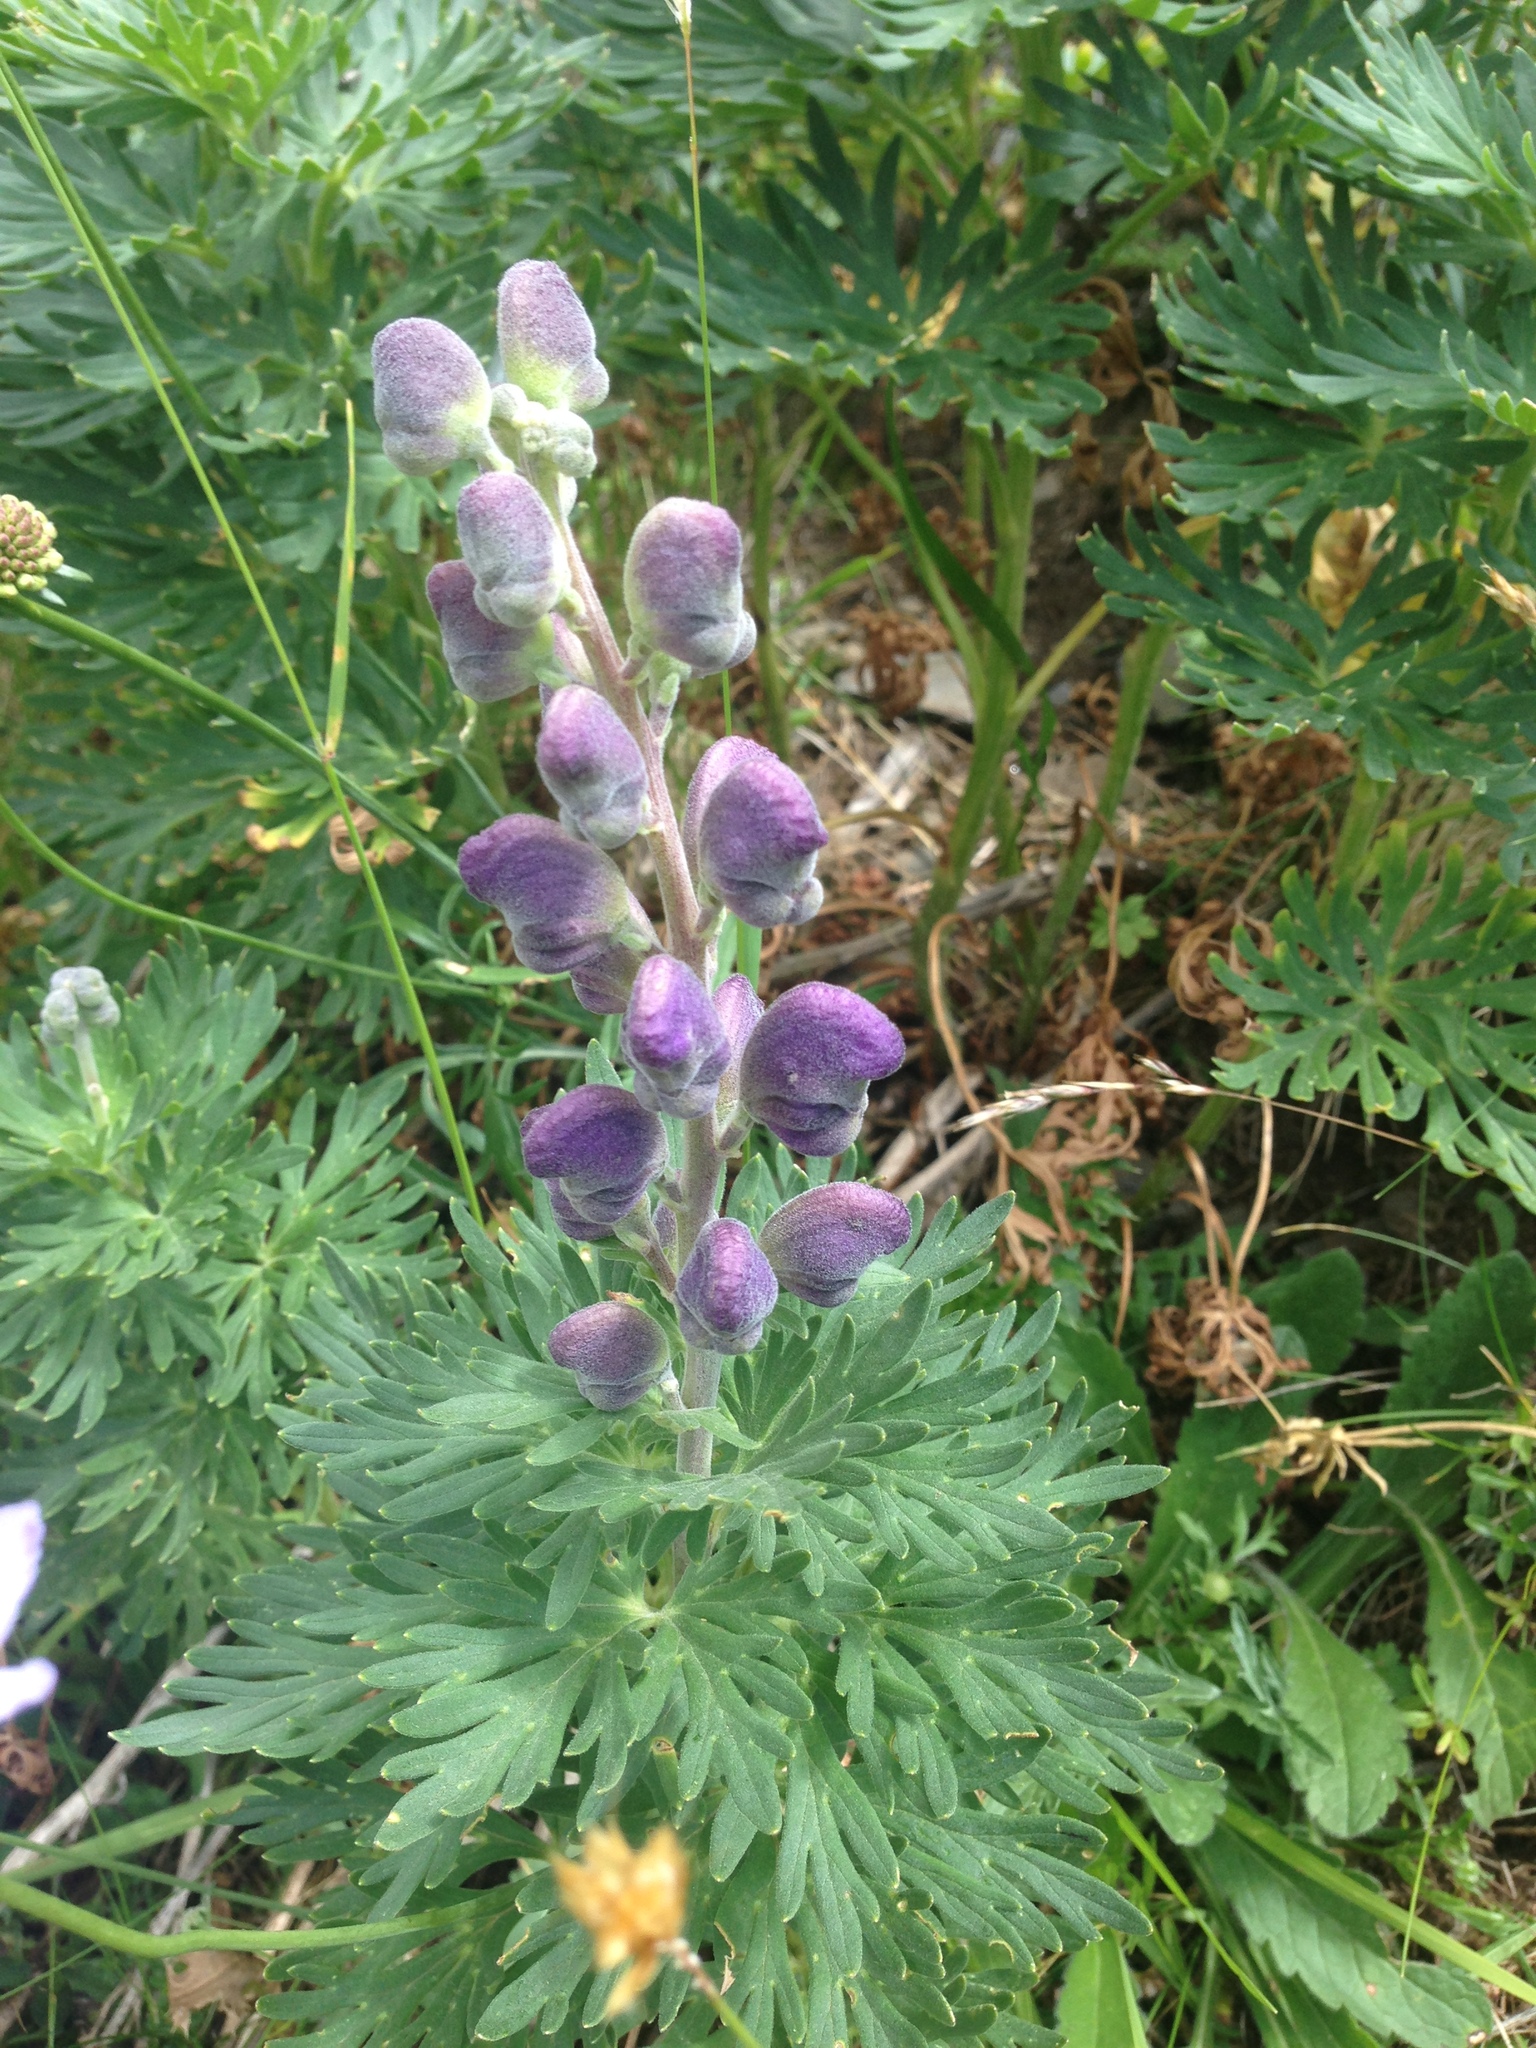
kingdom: Plantae
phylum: Tracheophyta
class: Magnoliopsida
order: Ranunculales
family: Ranunculaceae
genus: Aconitum
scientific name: Aconitum napellus
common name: Garden monkshood
